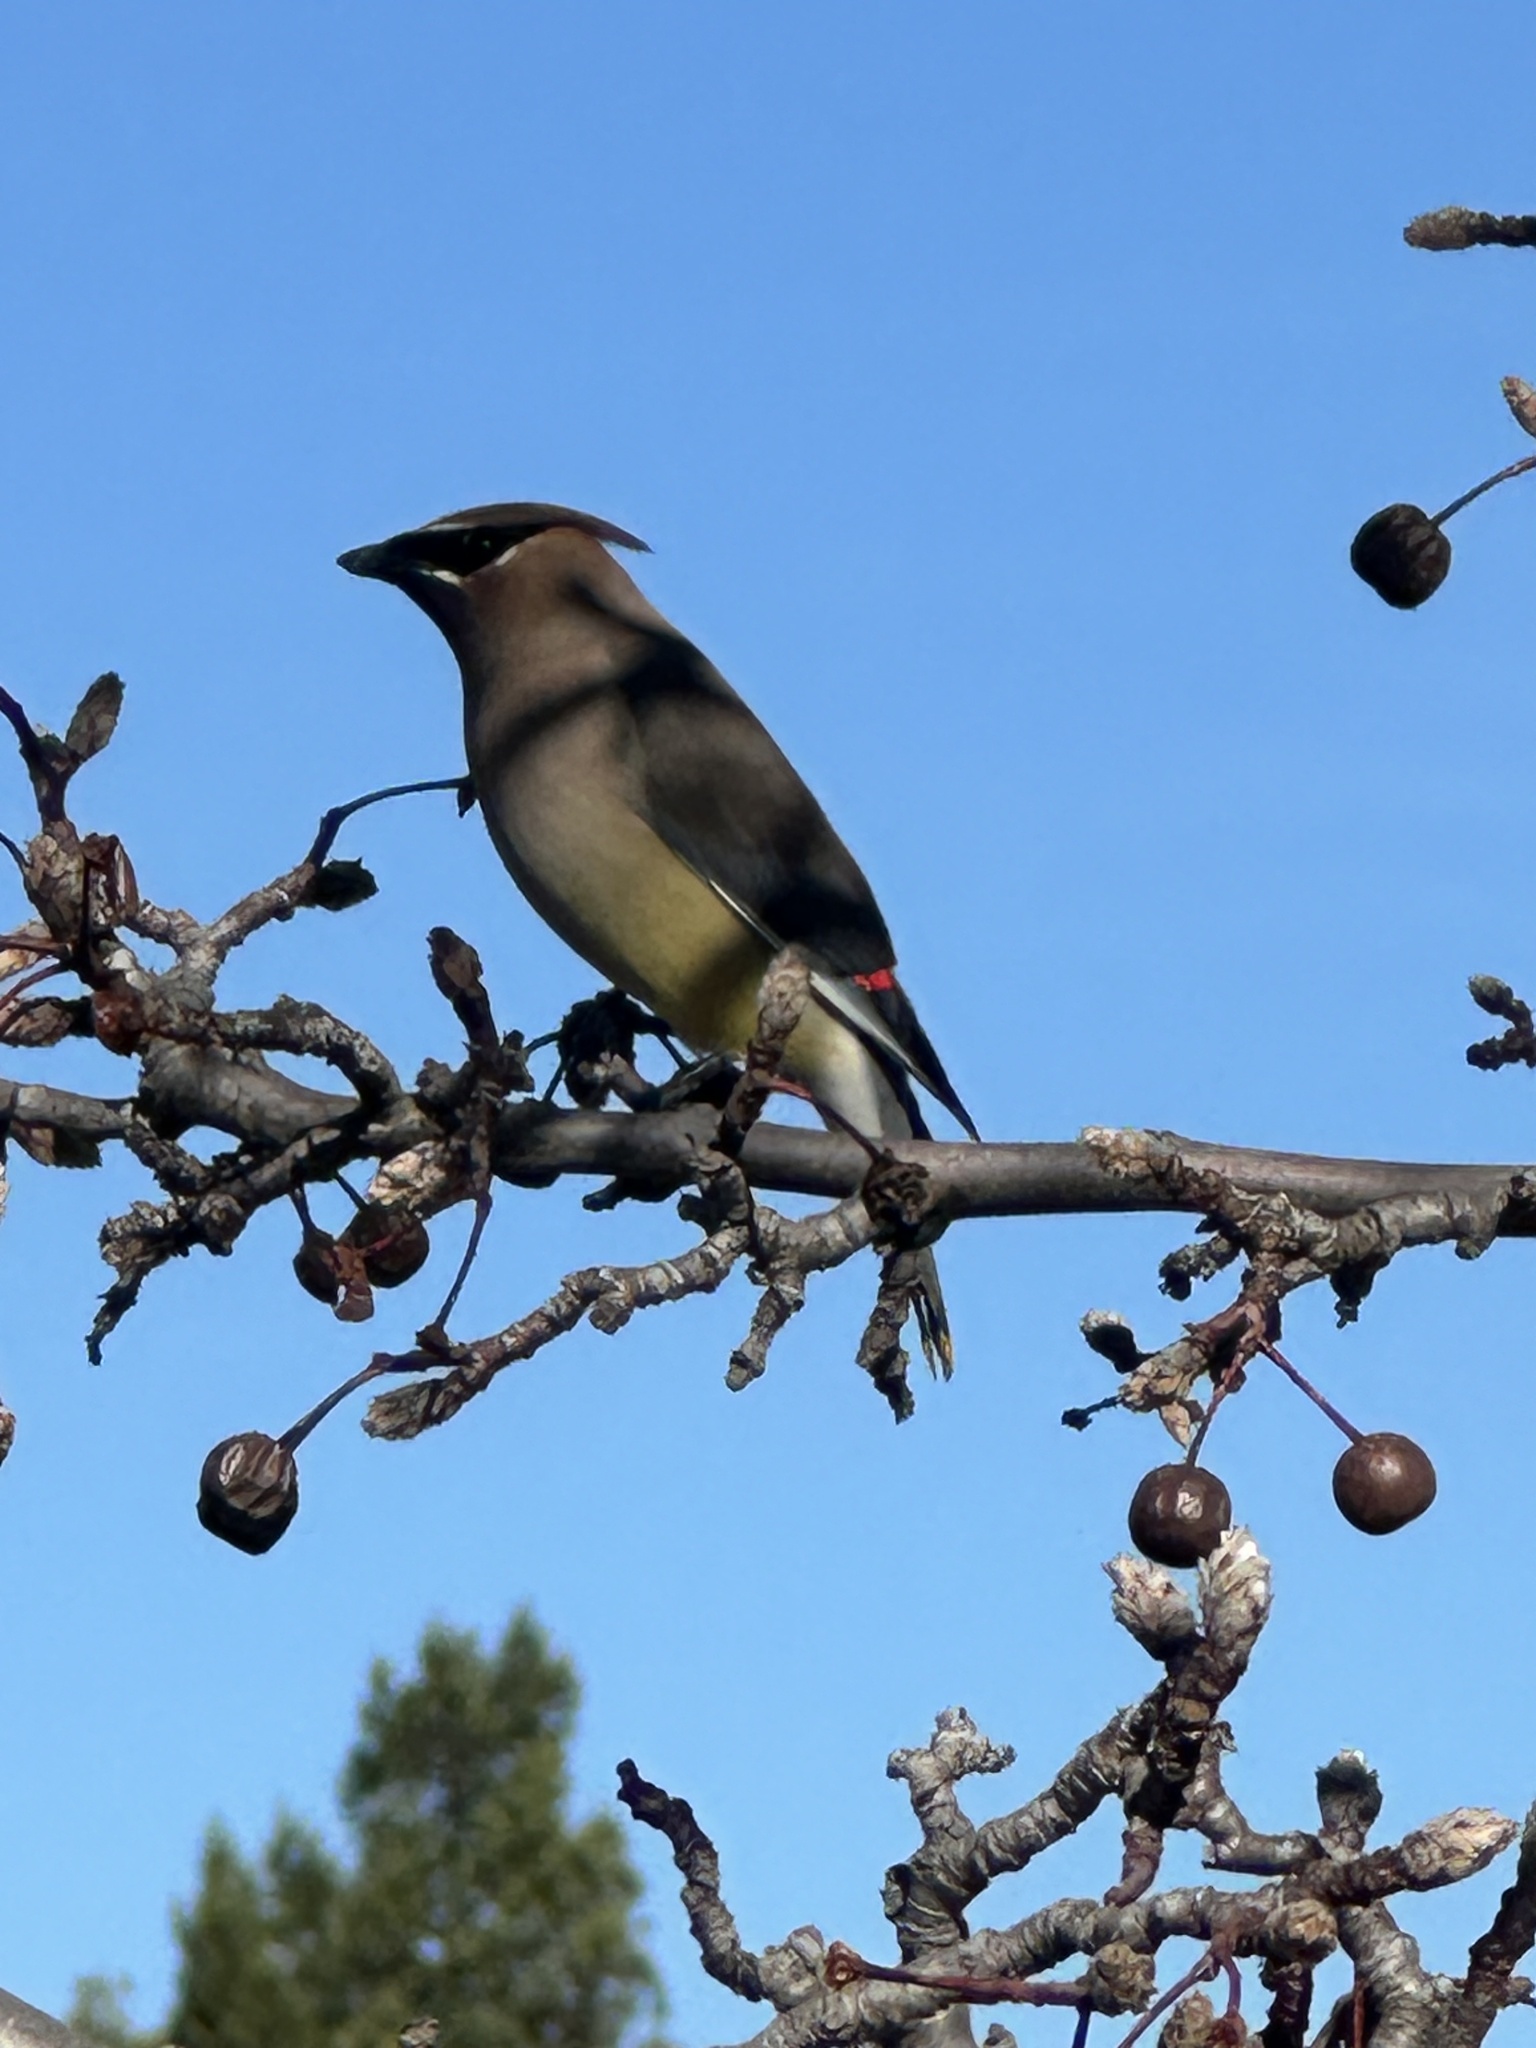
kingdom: Animalia
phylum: Chordata
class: Aves
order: Passeriformes
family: Bombycillidae
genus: Bombycilla
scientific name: Bombycilla cedrorum
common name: Cedar waxwing
